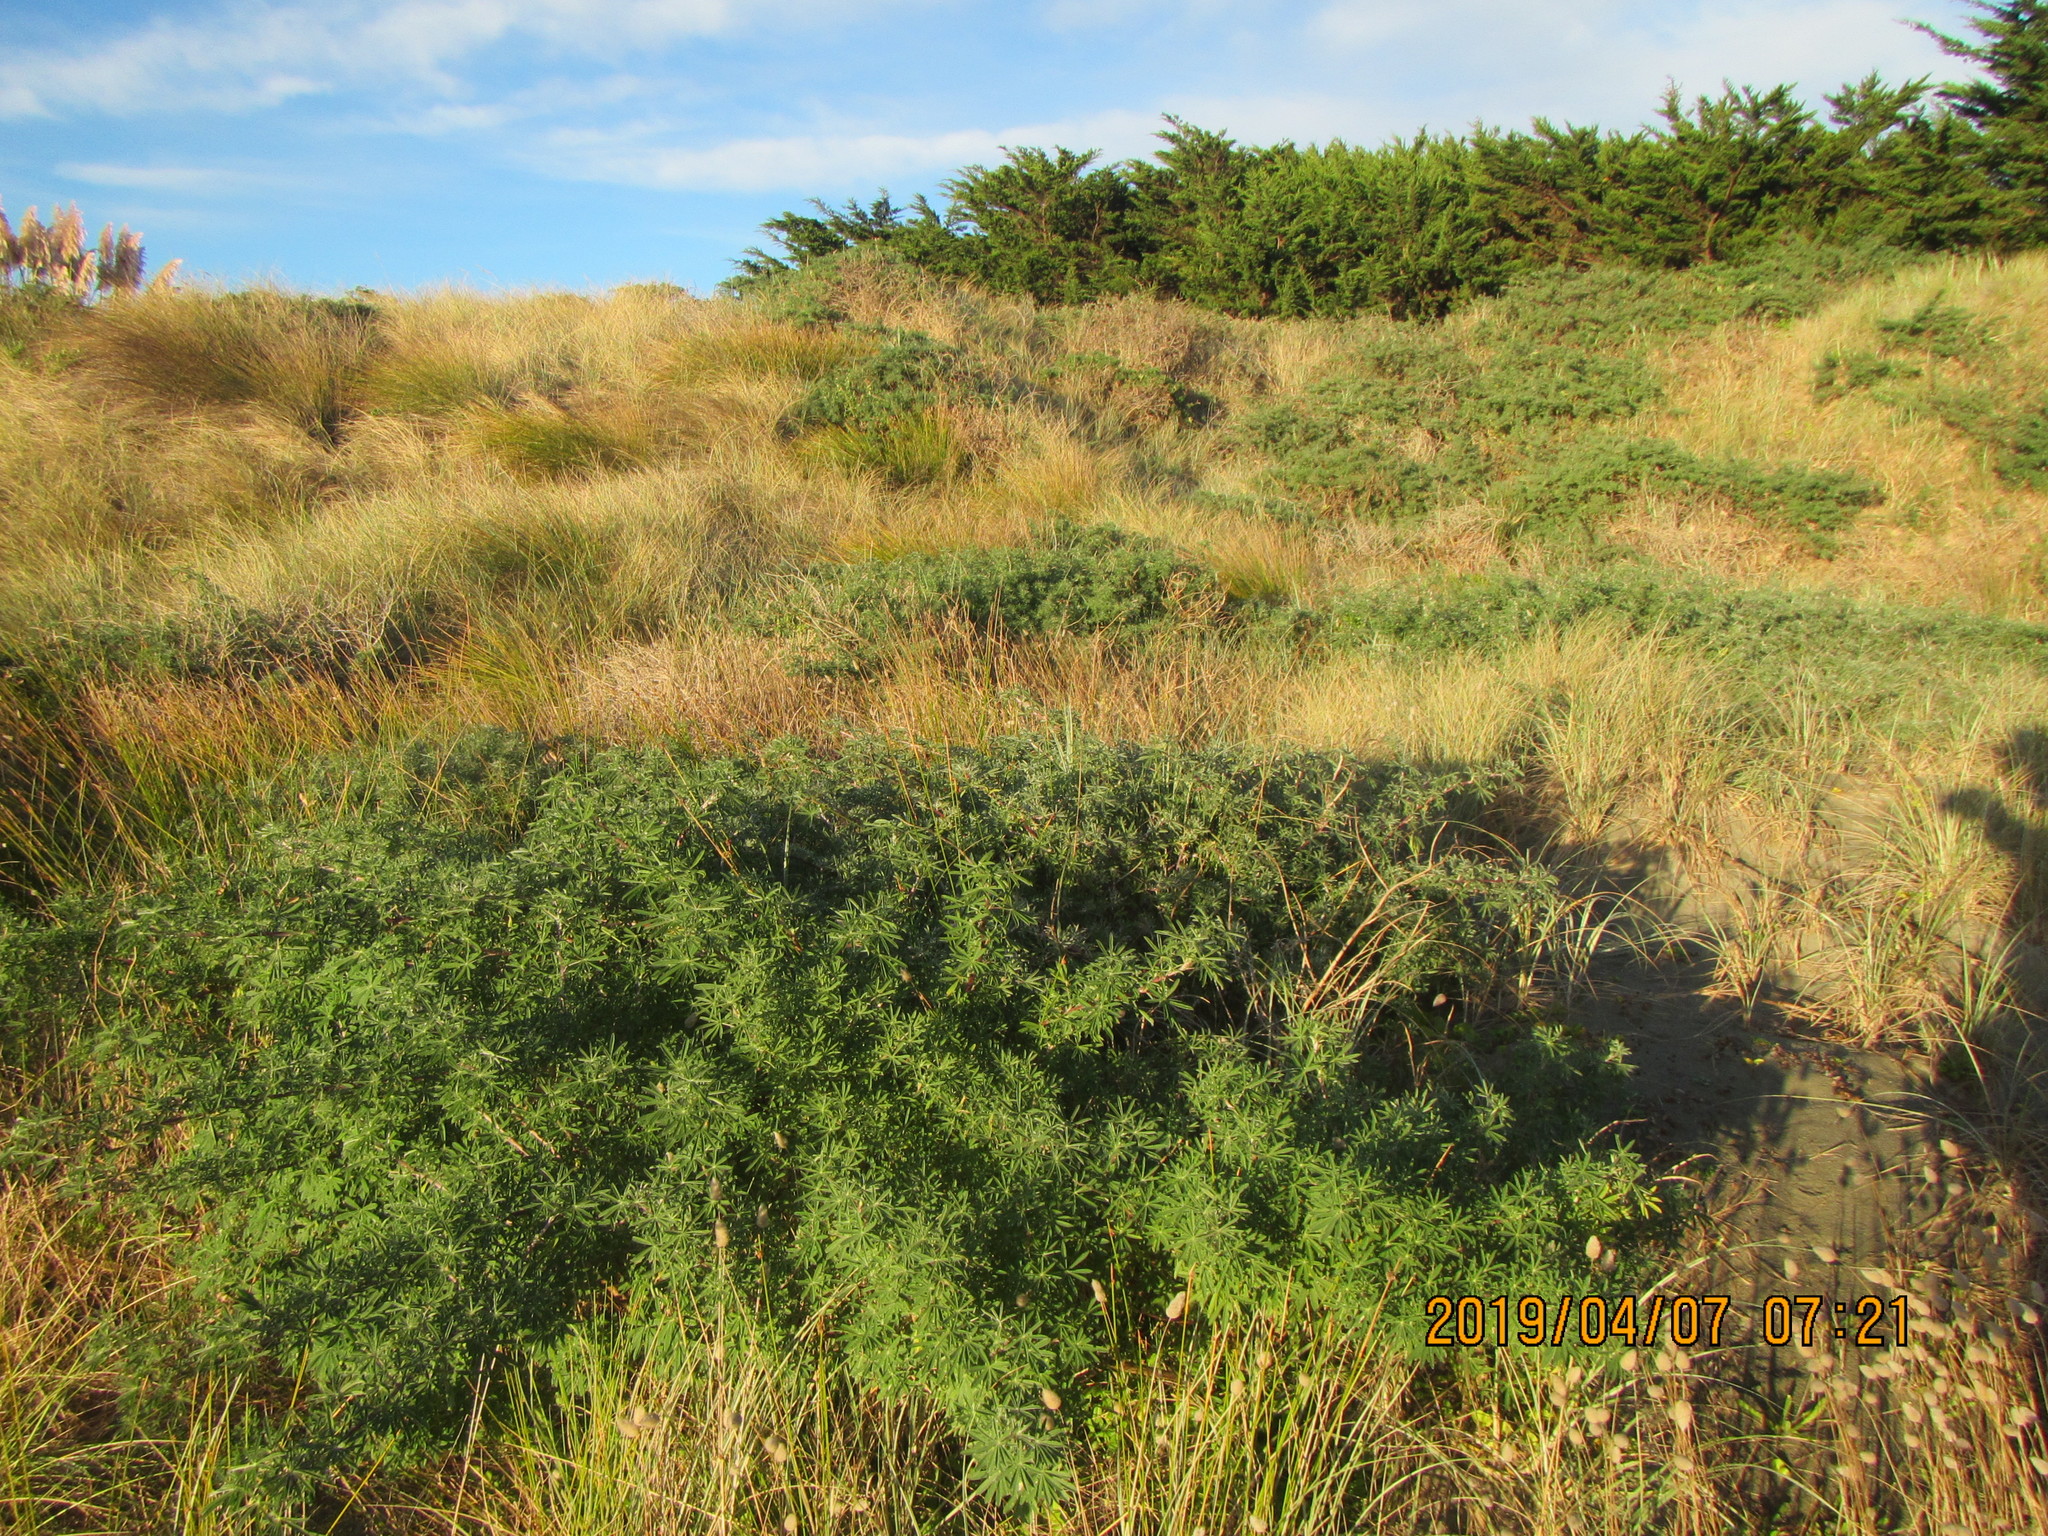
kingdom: Plantae
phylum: Tracheophyta
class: Magnoliopsida
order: Fabales
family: Fabaceae
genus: Lupinus
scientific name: Lupinus arboreus
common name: Yellow bush lupine
